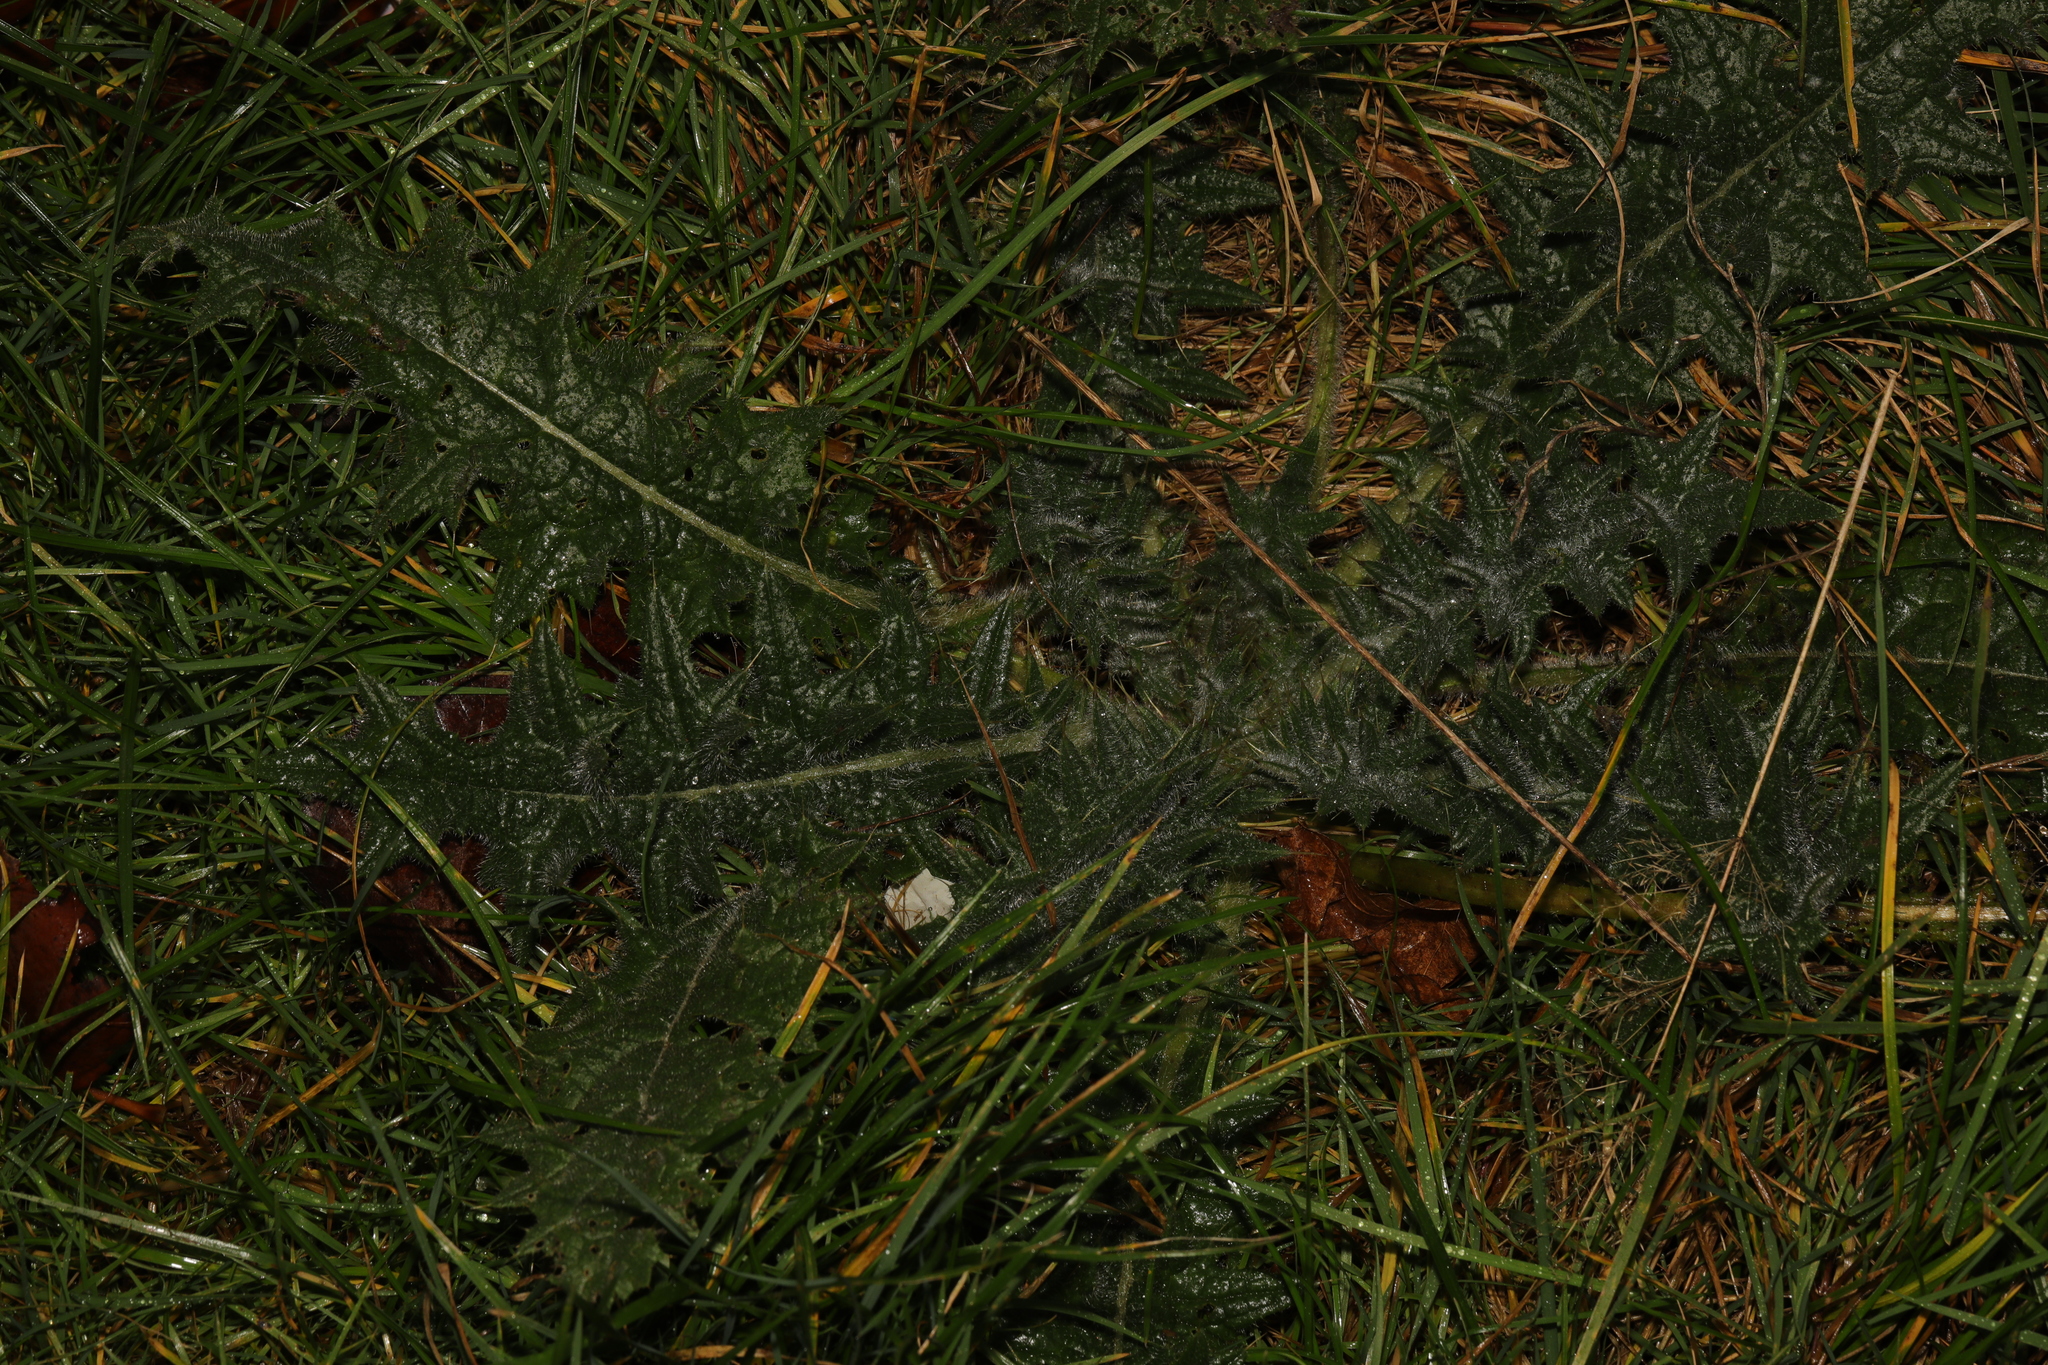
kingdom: Plantae
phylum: Tracheophyta
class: Magnoliopsida
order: Asterales
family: Asteraceae
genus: Cirsium
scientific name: Cirsium vulgare
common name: Bull thistle
